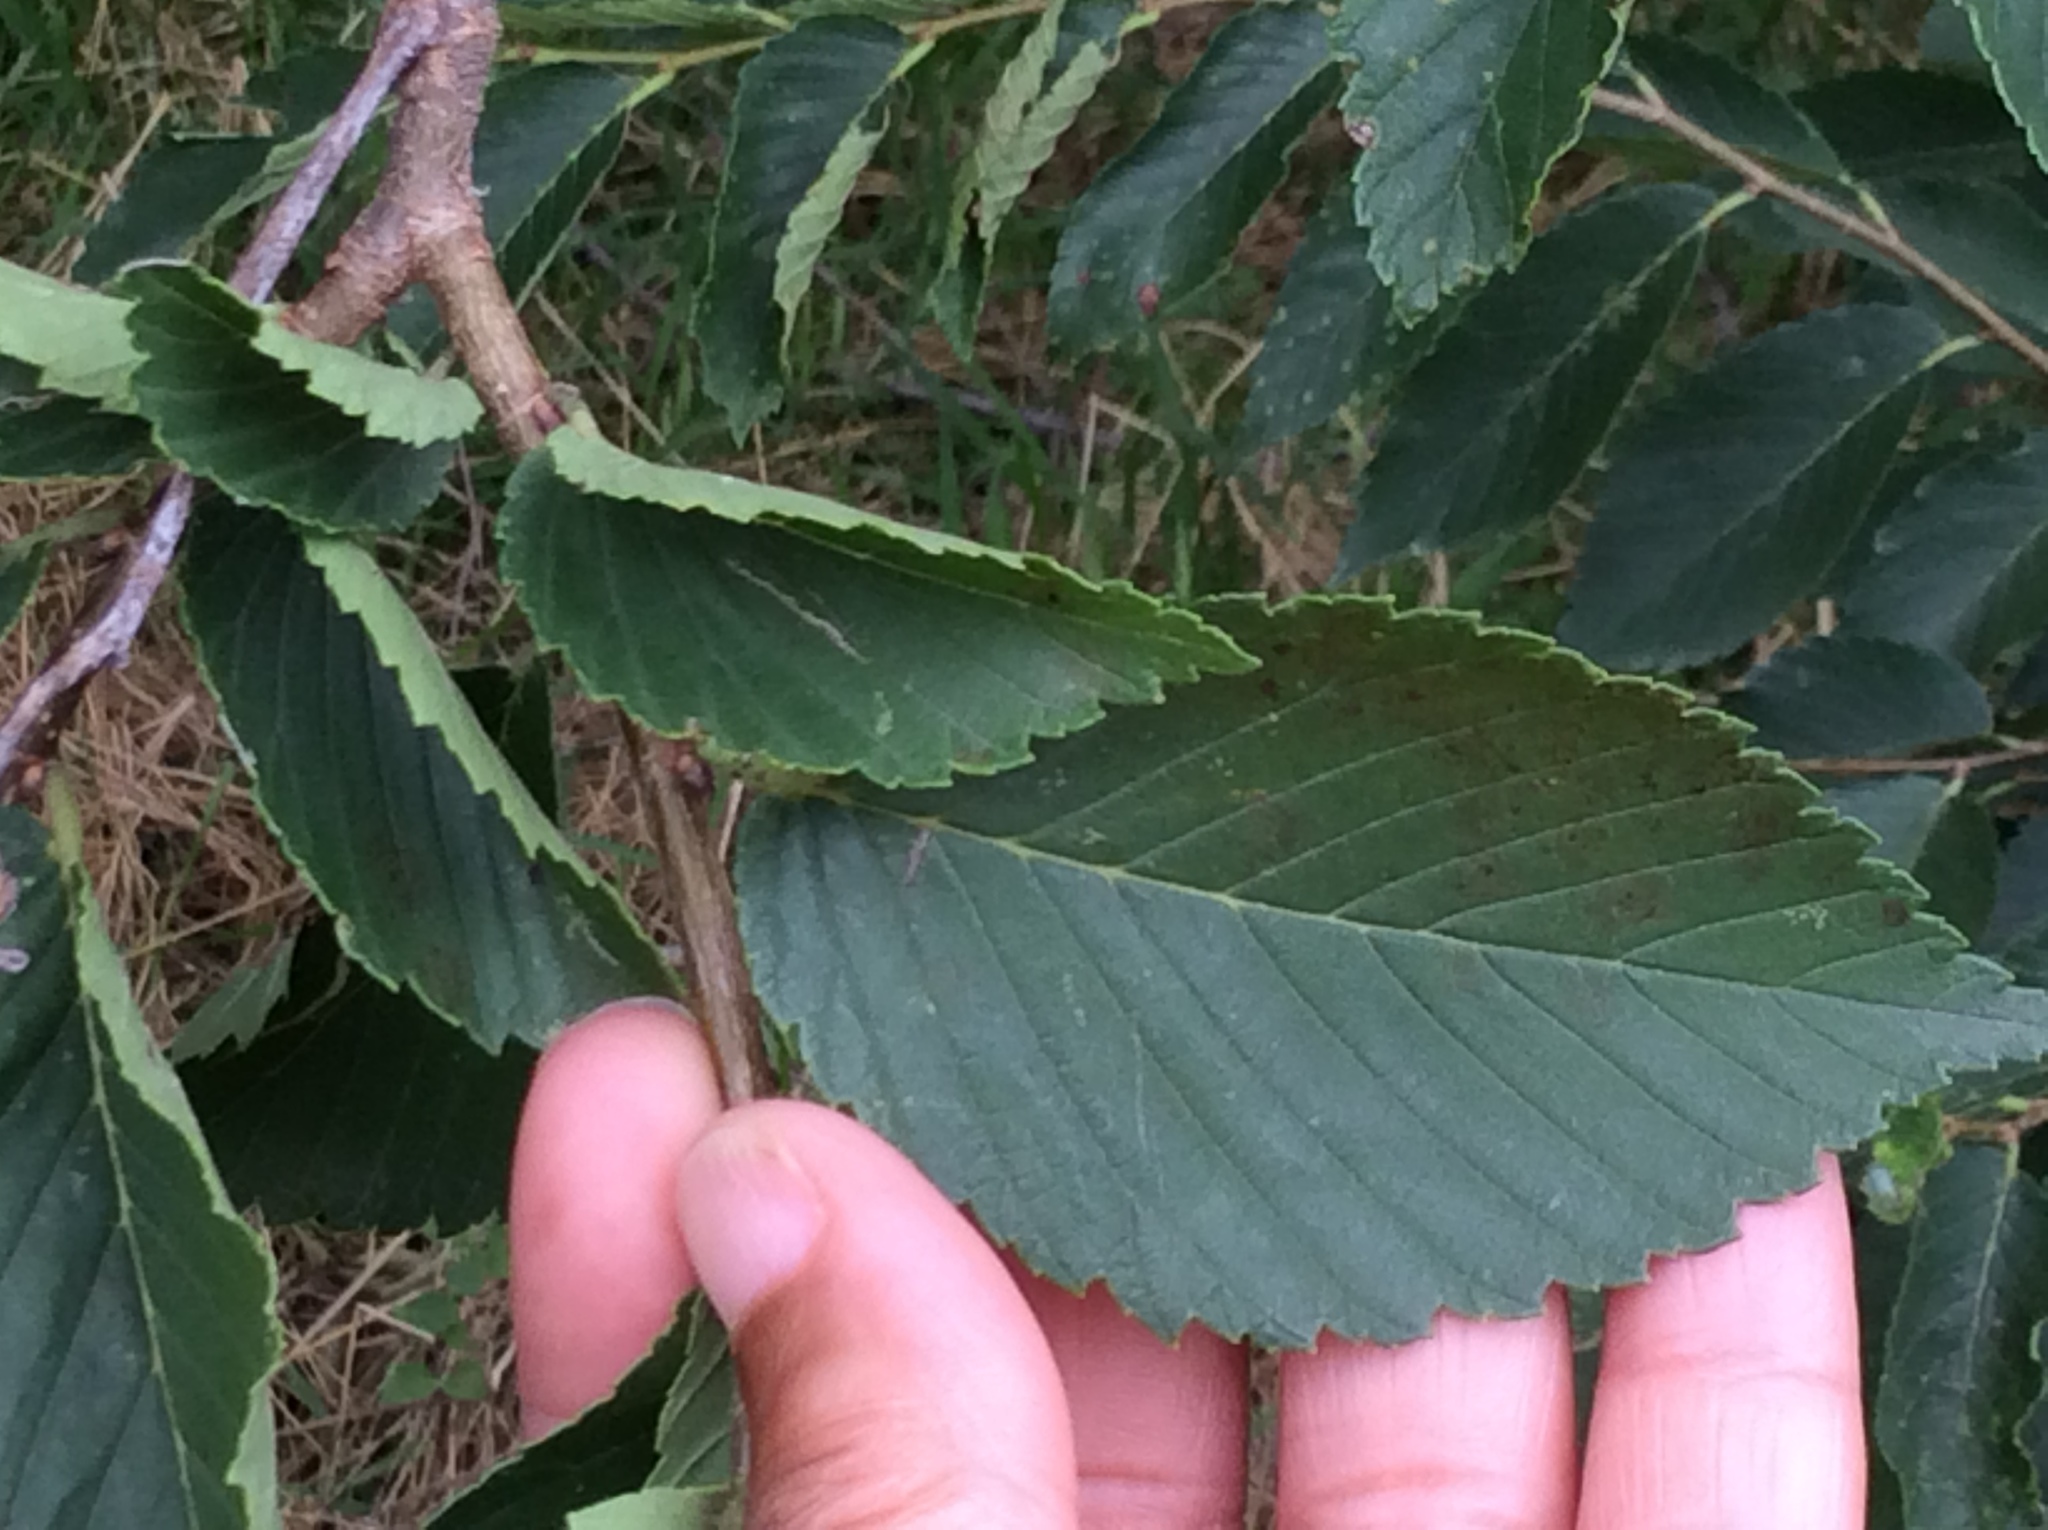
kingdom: Plantae
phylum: Tracheophyta
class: Magnoliopsida
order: Rosales
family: Ulmaceae
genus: Ulmus
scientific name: Ulmus americana
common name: American elm
